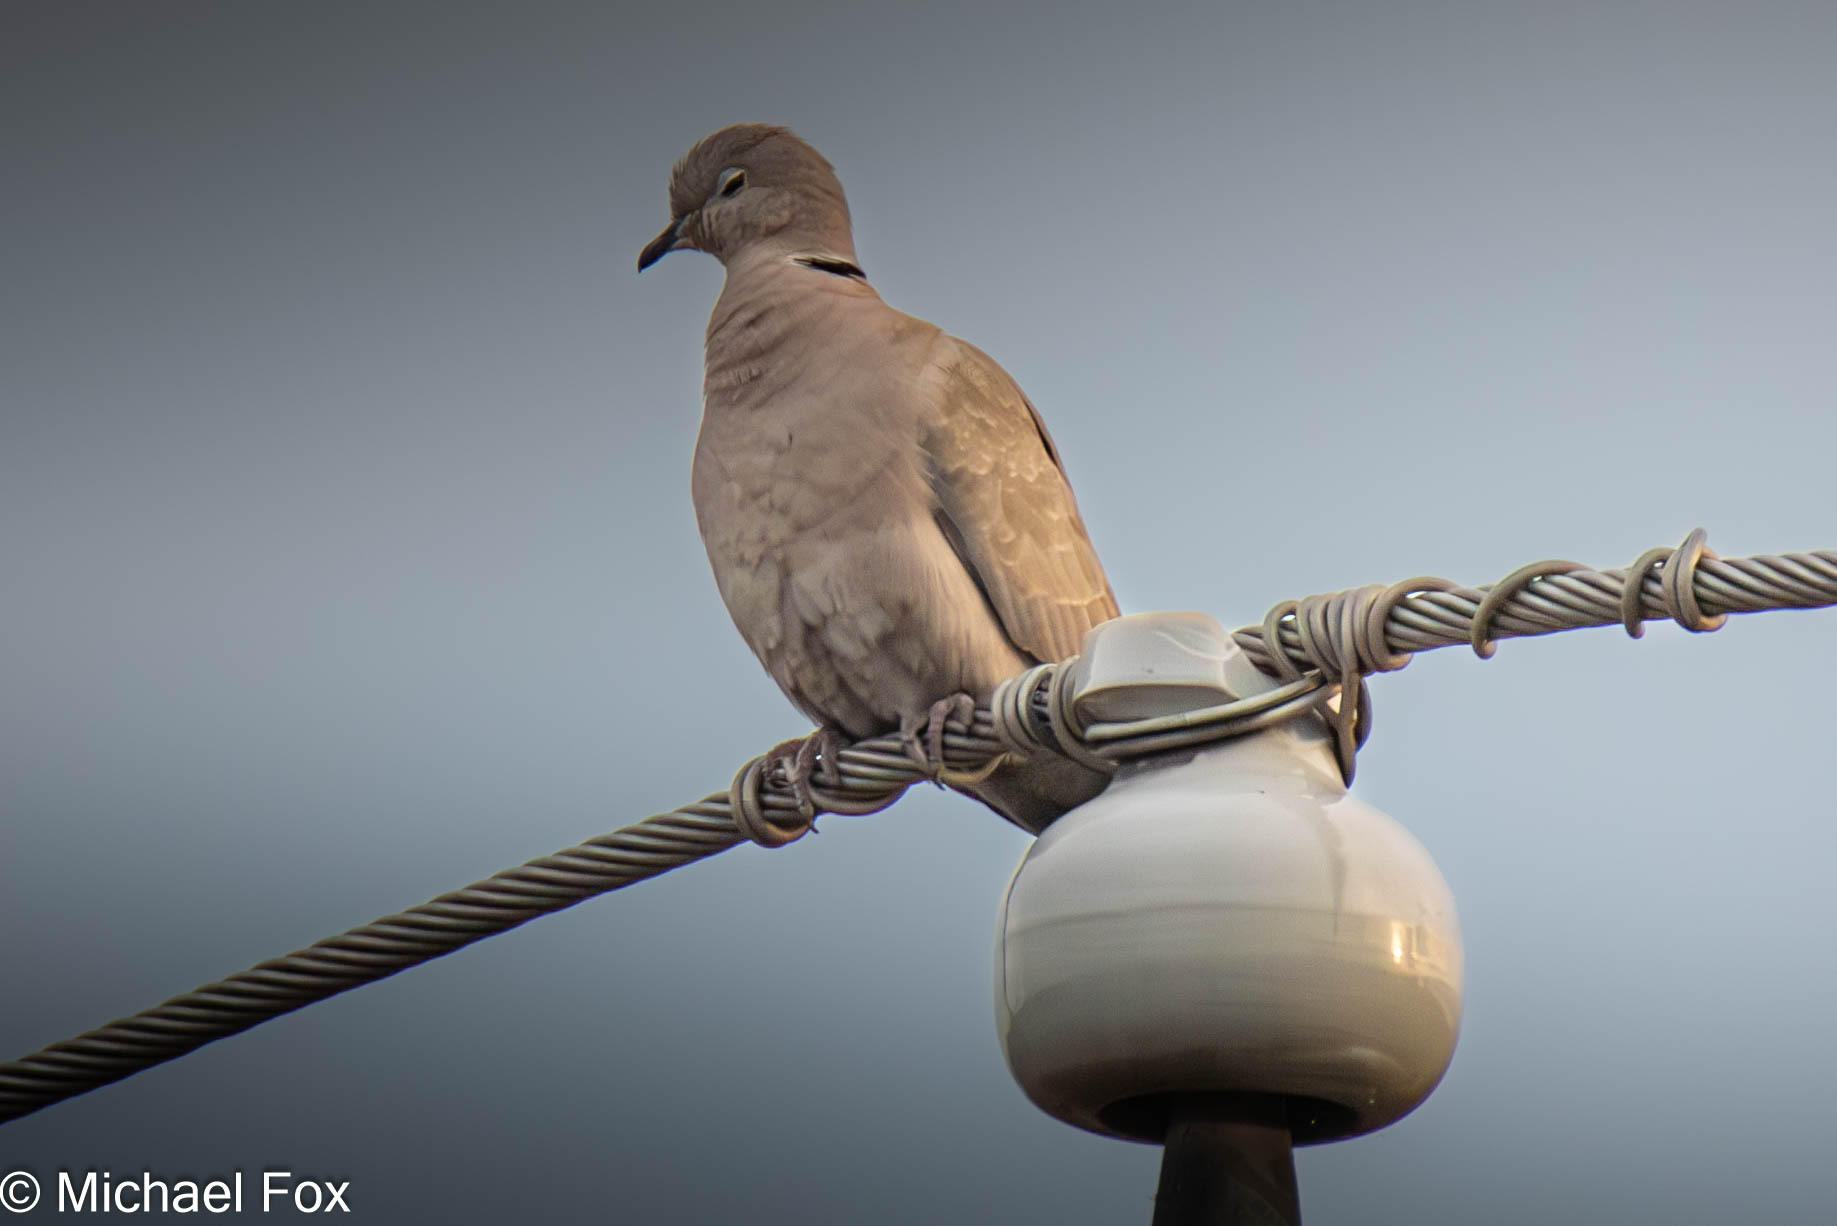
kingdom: Animalia
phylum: Chordata
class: Aves
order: Columbiformes
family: Columbidae
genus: Streptopelia
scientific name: Streptopelia decaocto
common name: Eurasian collared dove
